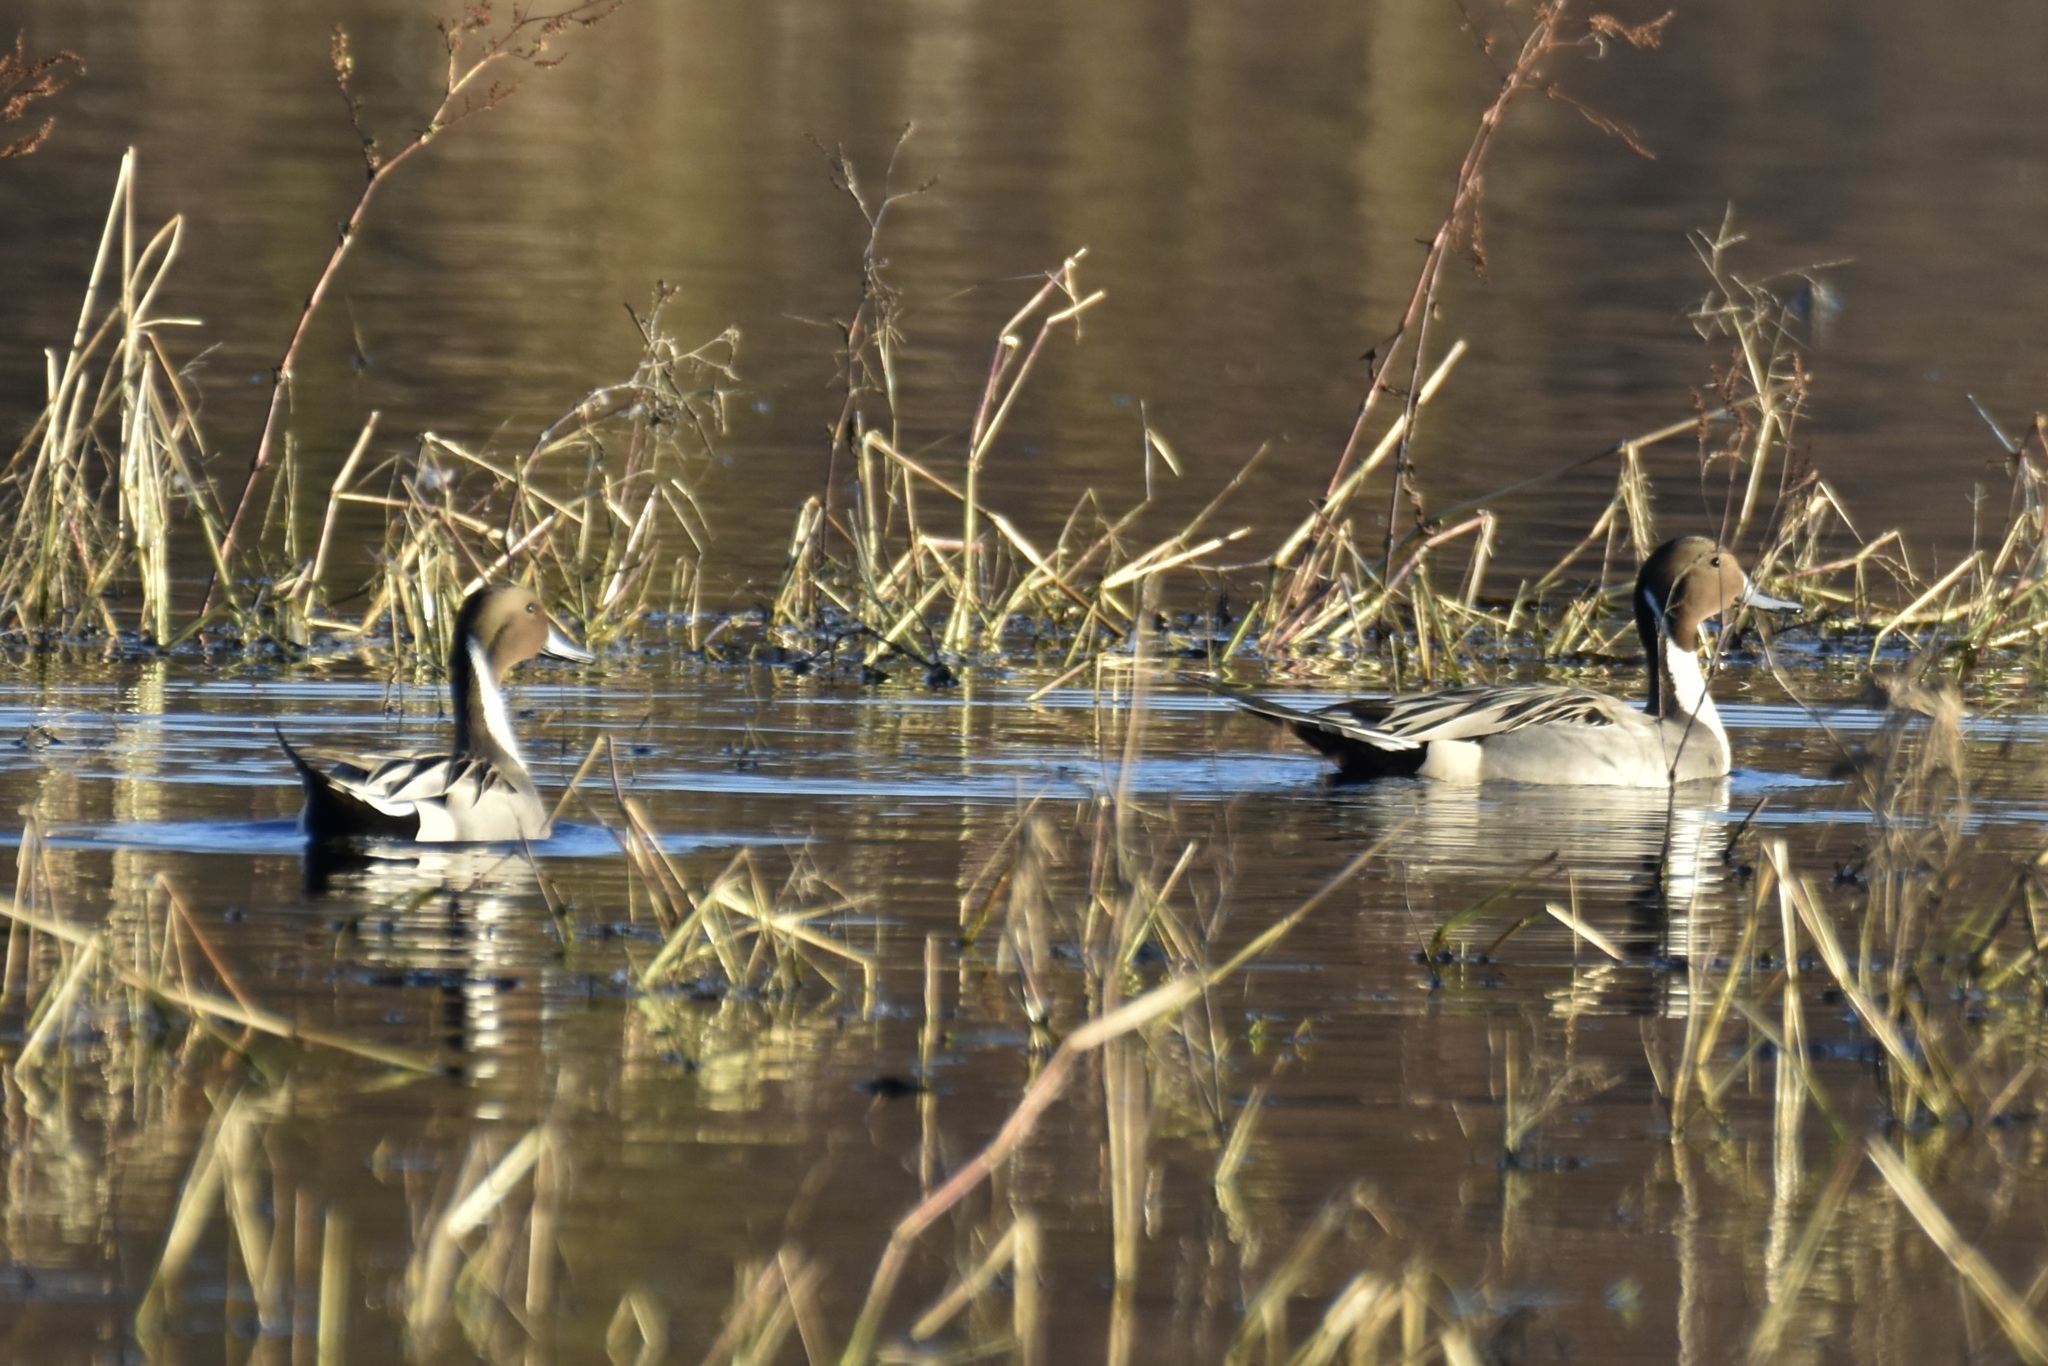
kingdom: Animalia
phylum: Chordata
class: Aves
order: Anseriformes
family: Anatidae
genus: Anas
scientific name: Anas acuta
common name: Northern pintail
